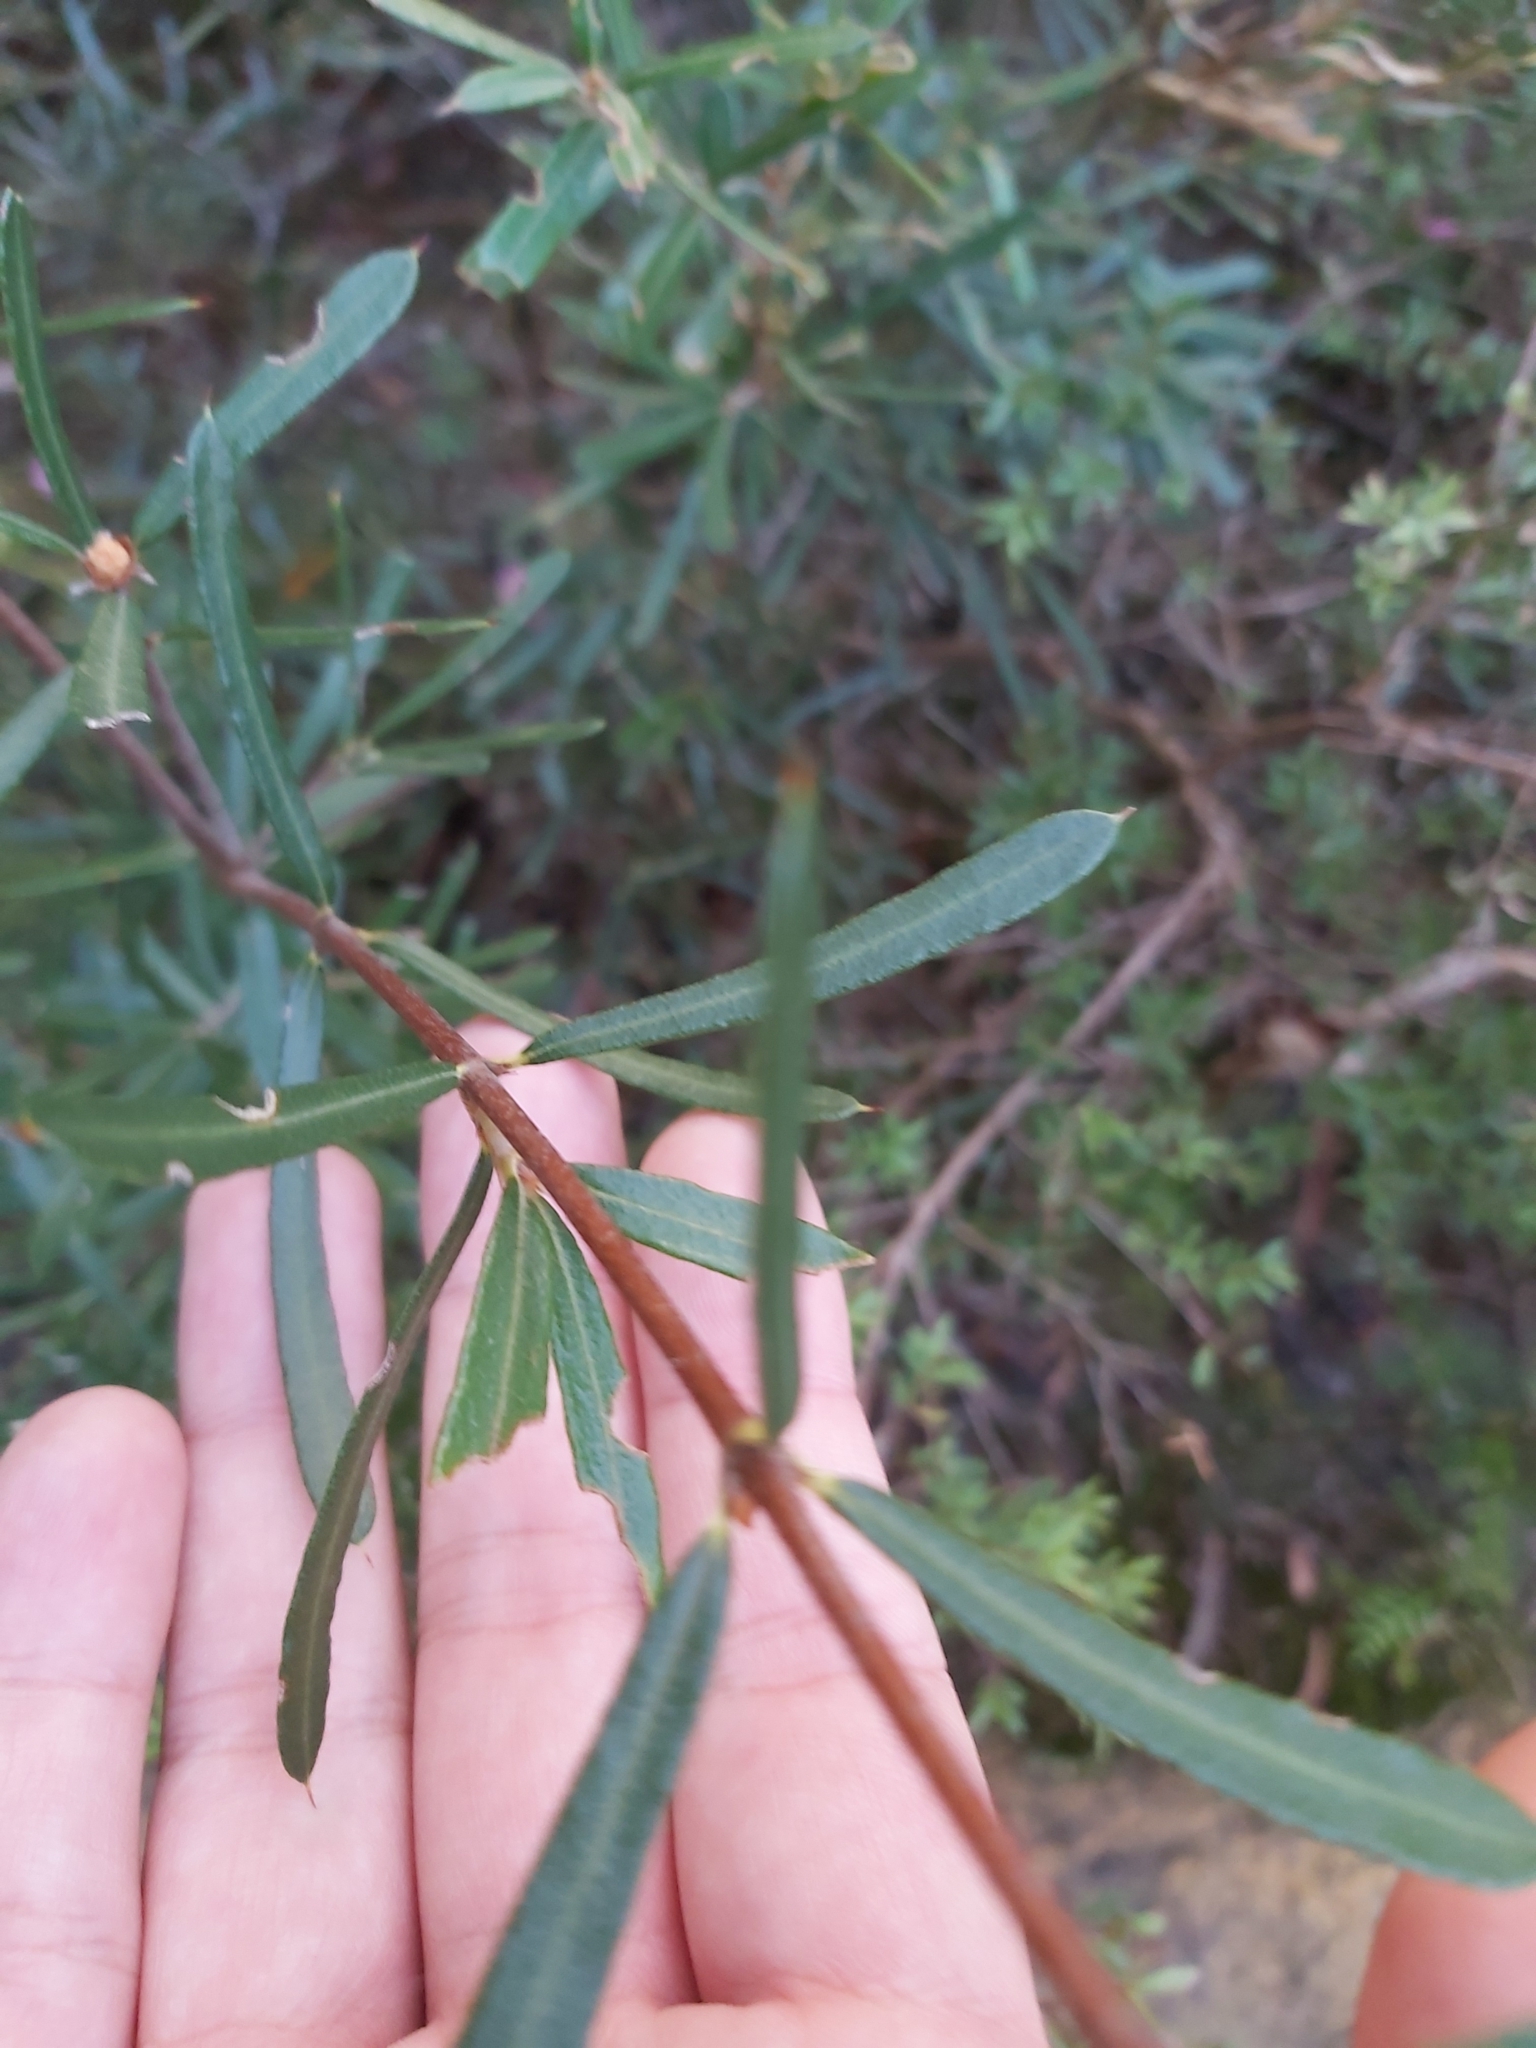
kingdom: Plantae
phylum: Tracheophyta
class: Magnoliopsida
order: Proteales
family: Proteaceae
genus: Lambertia
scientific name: Lambertia formosa
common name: Mountain-devil
